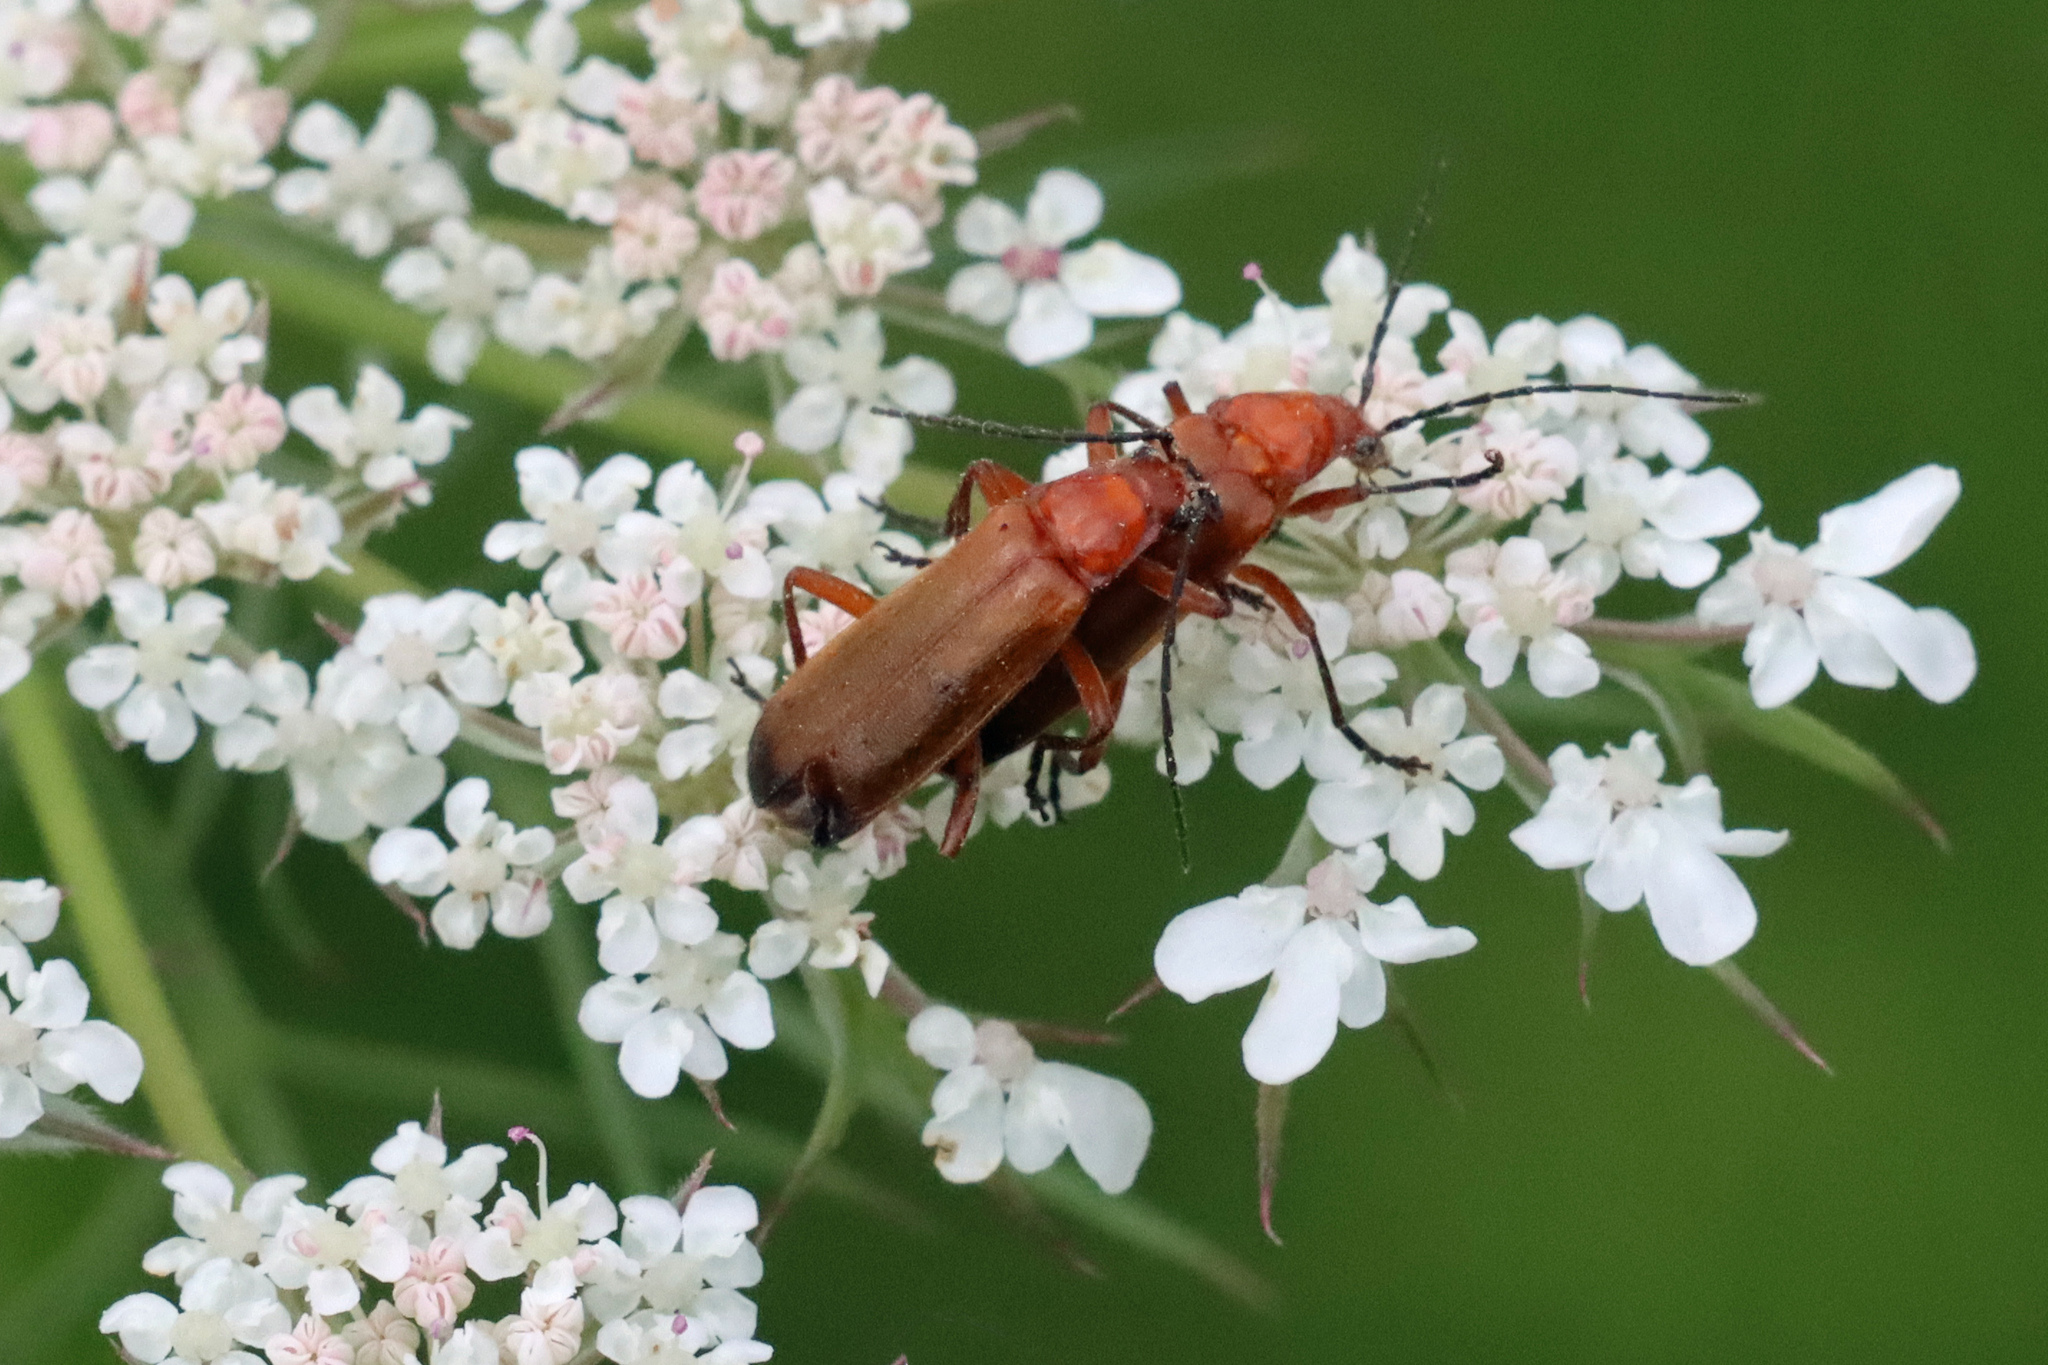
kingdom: Animalia
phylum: Arthropoda
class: Insecta
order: Coleoptera
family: Cantharidae
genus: Rhagonycha
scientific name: Rhagonycha fulva
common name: Common red soldier beetle
